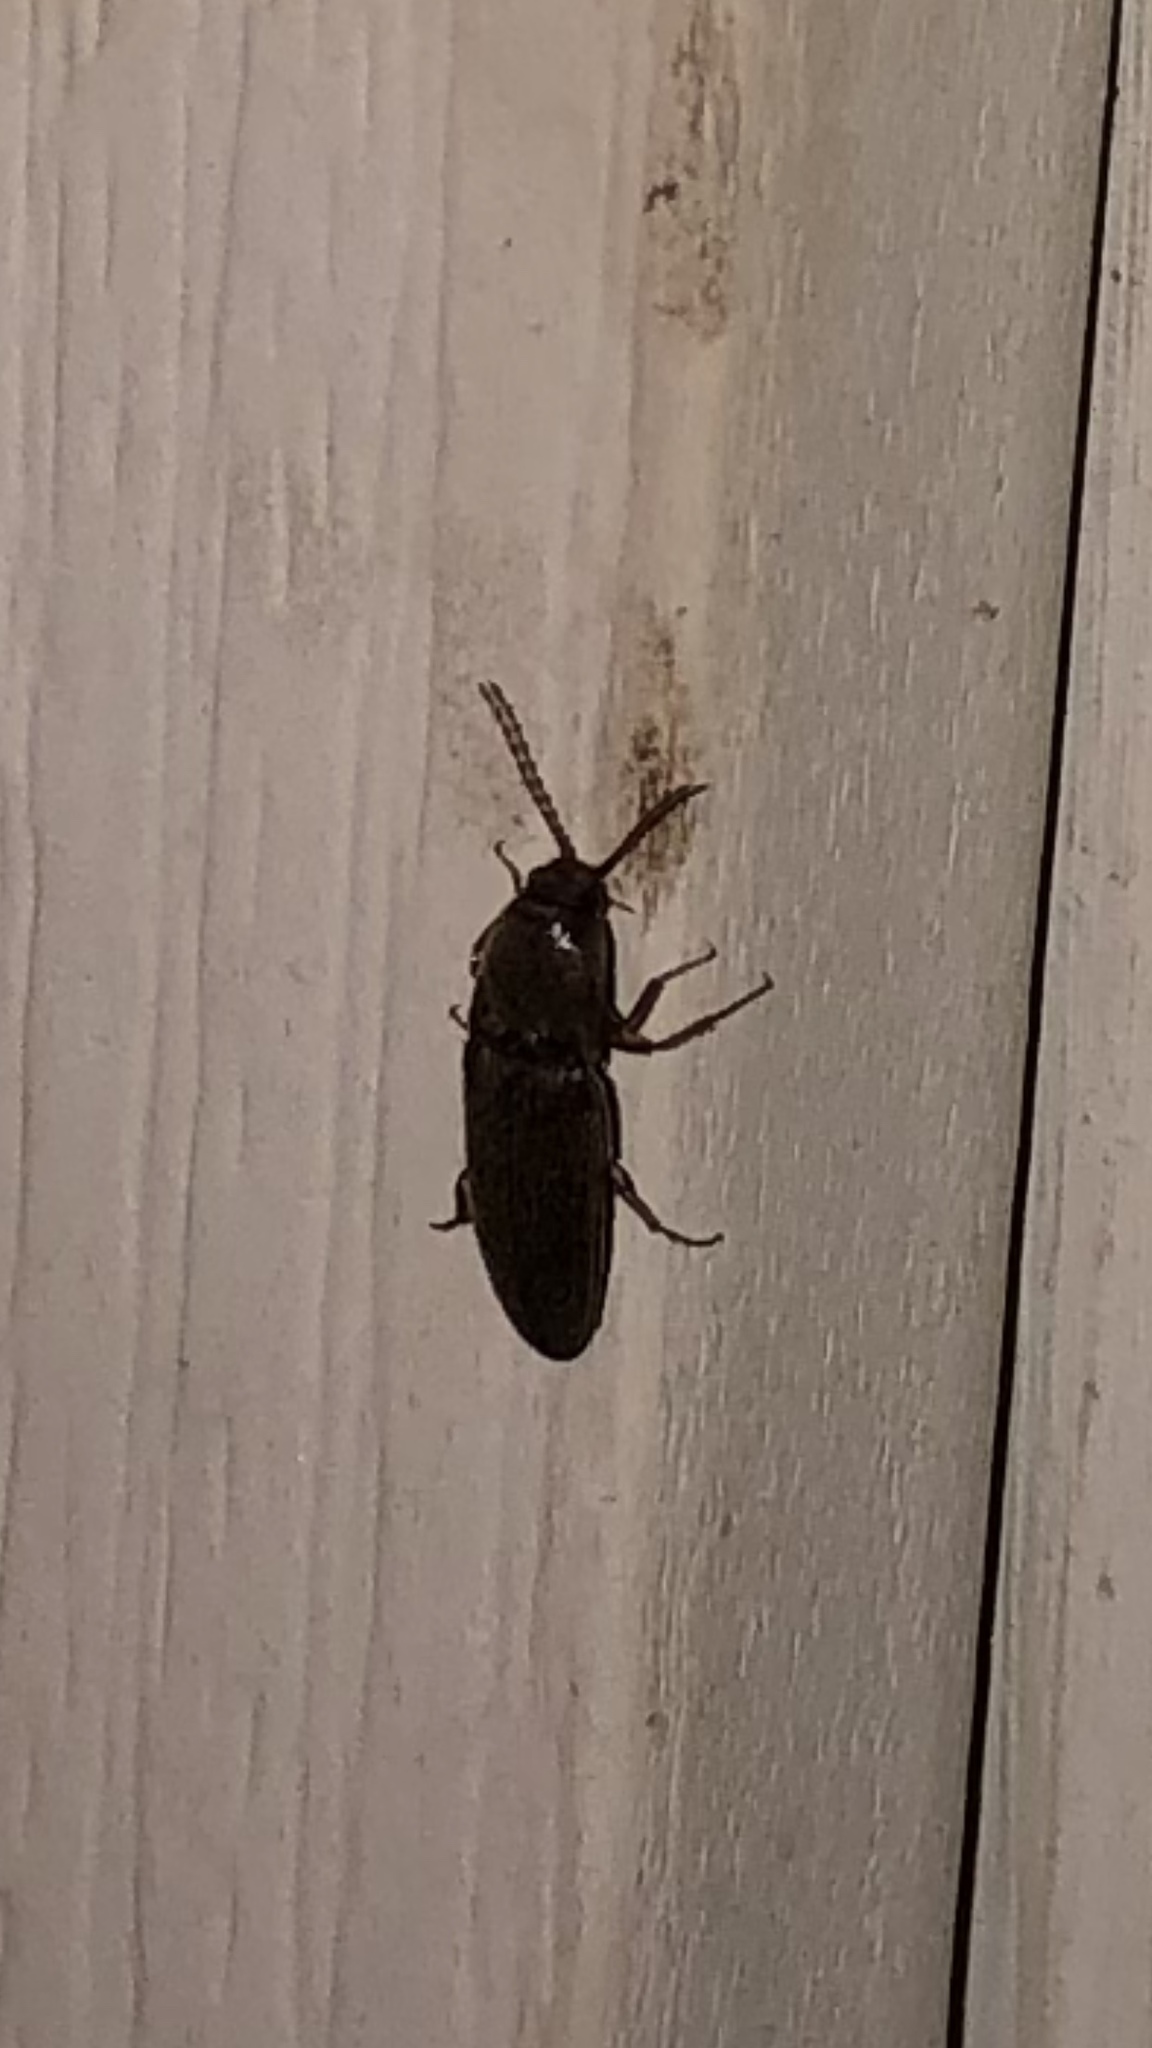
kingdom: Animalia
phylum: Arthropoda
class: Insecta
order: Coleoptera
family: Elateridae
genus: Melanotus
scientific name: Melanotus
